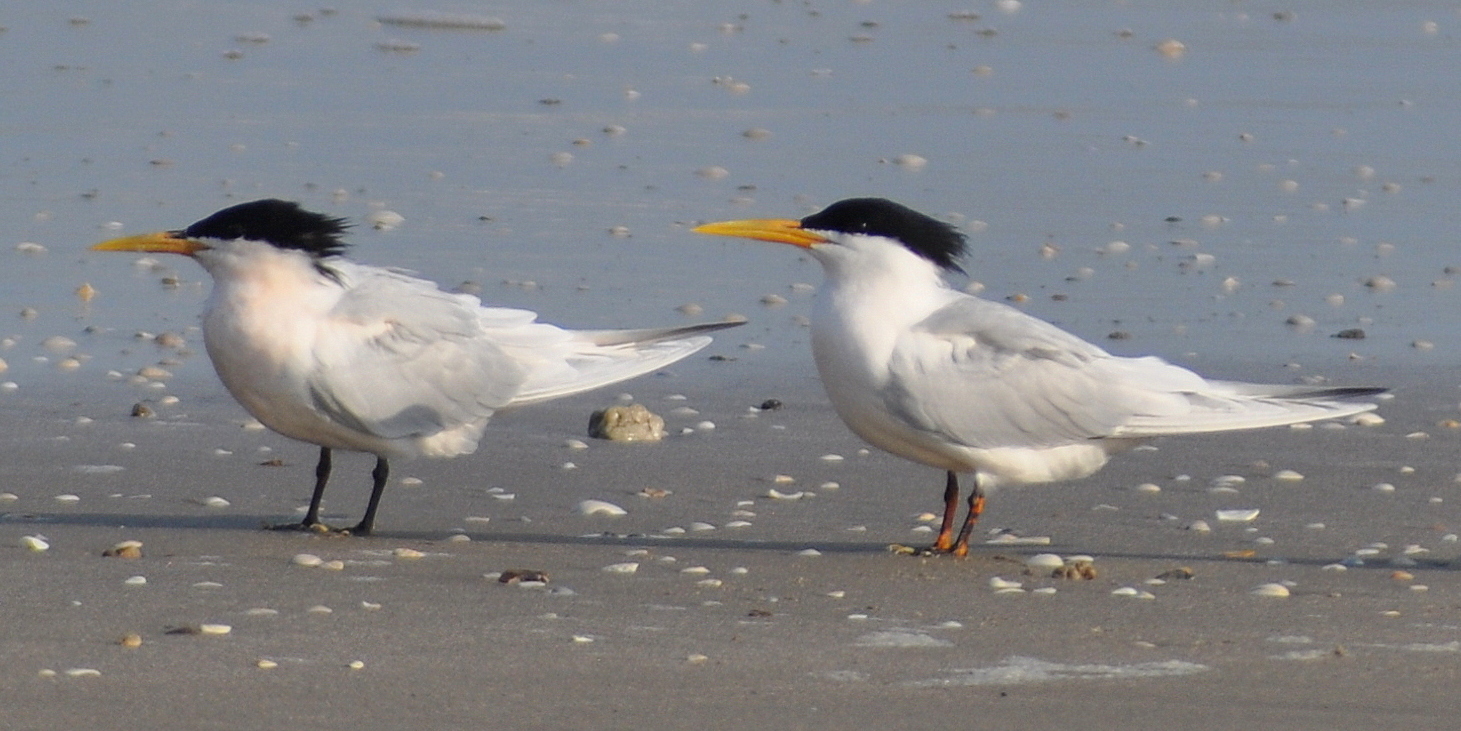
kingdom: Animalia
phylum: Chordata
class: Aves
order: Charadriiformes
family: Laridae
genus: Thalasseus
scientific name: Thalasseus sandvicensis
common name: Sandwich tern
